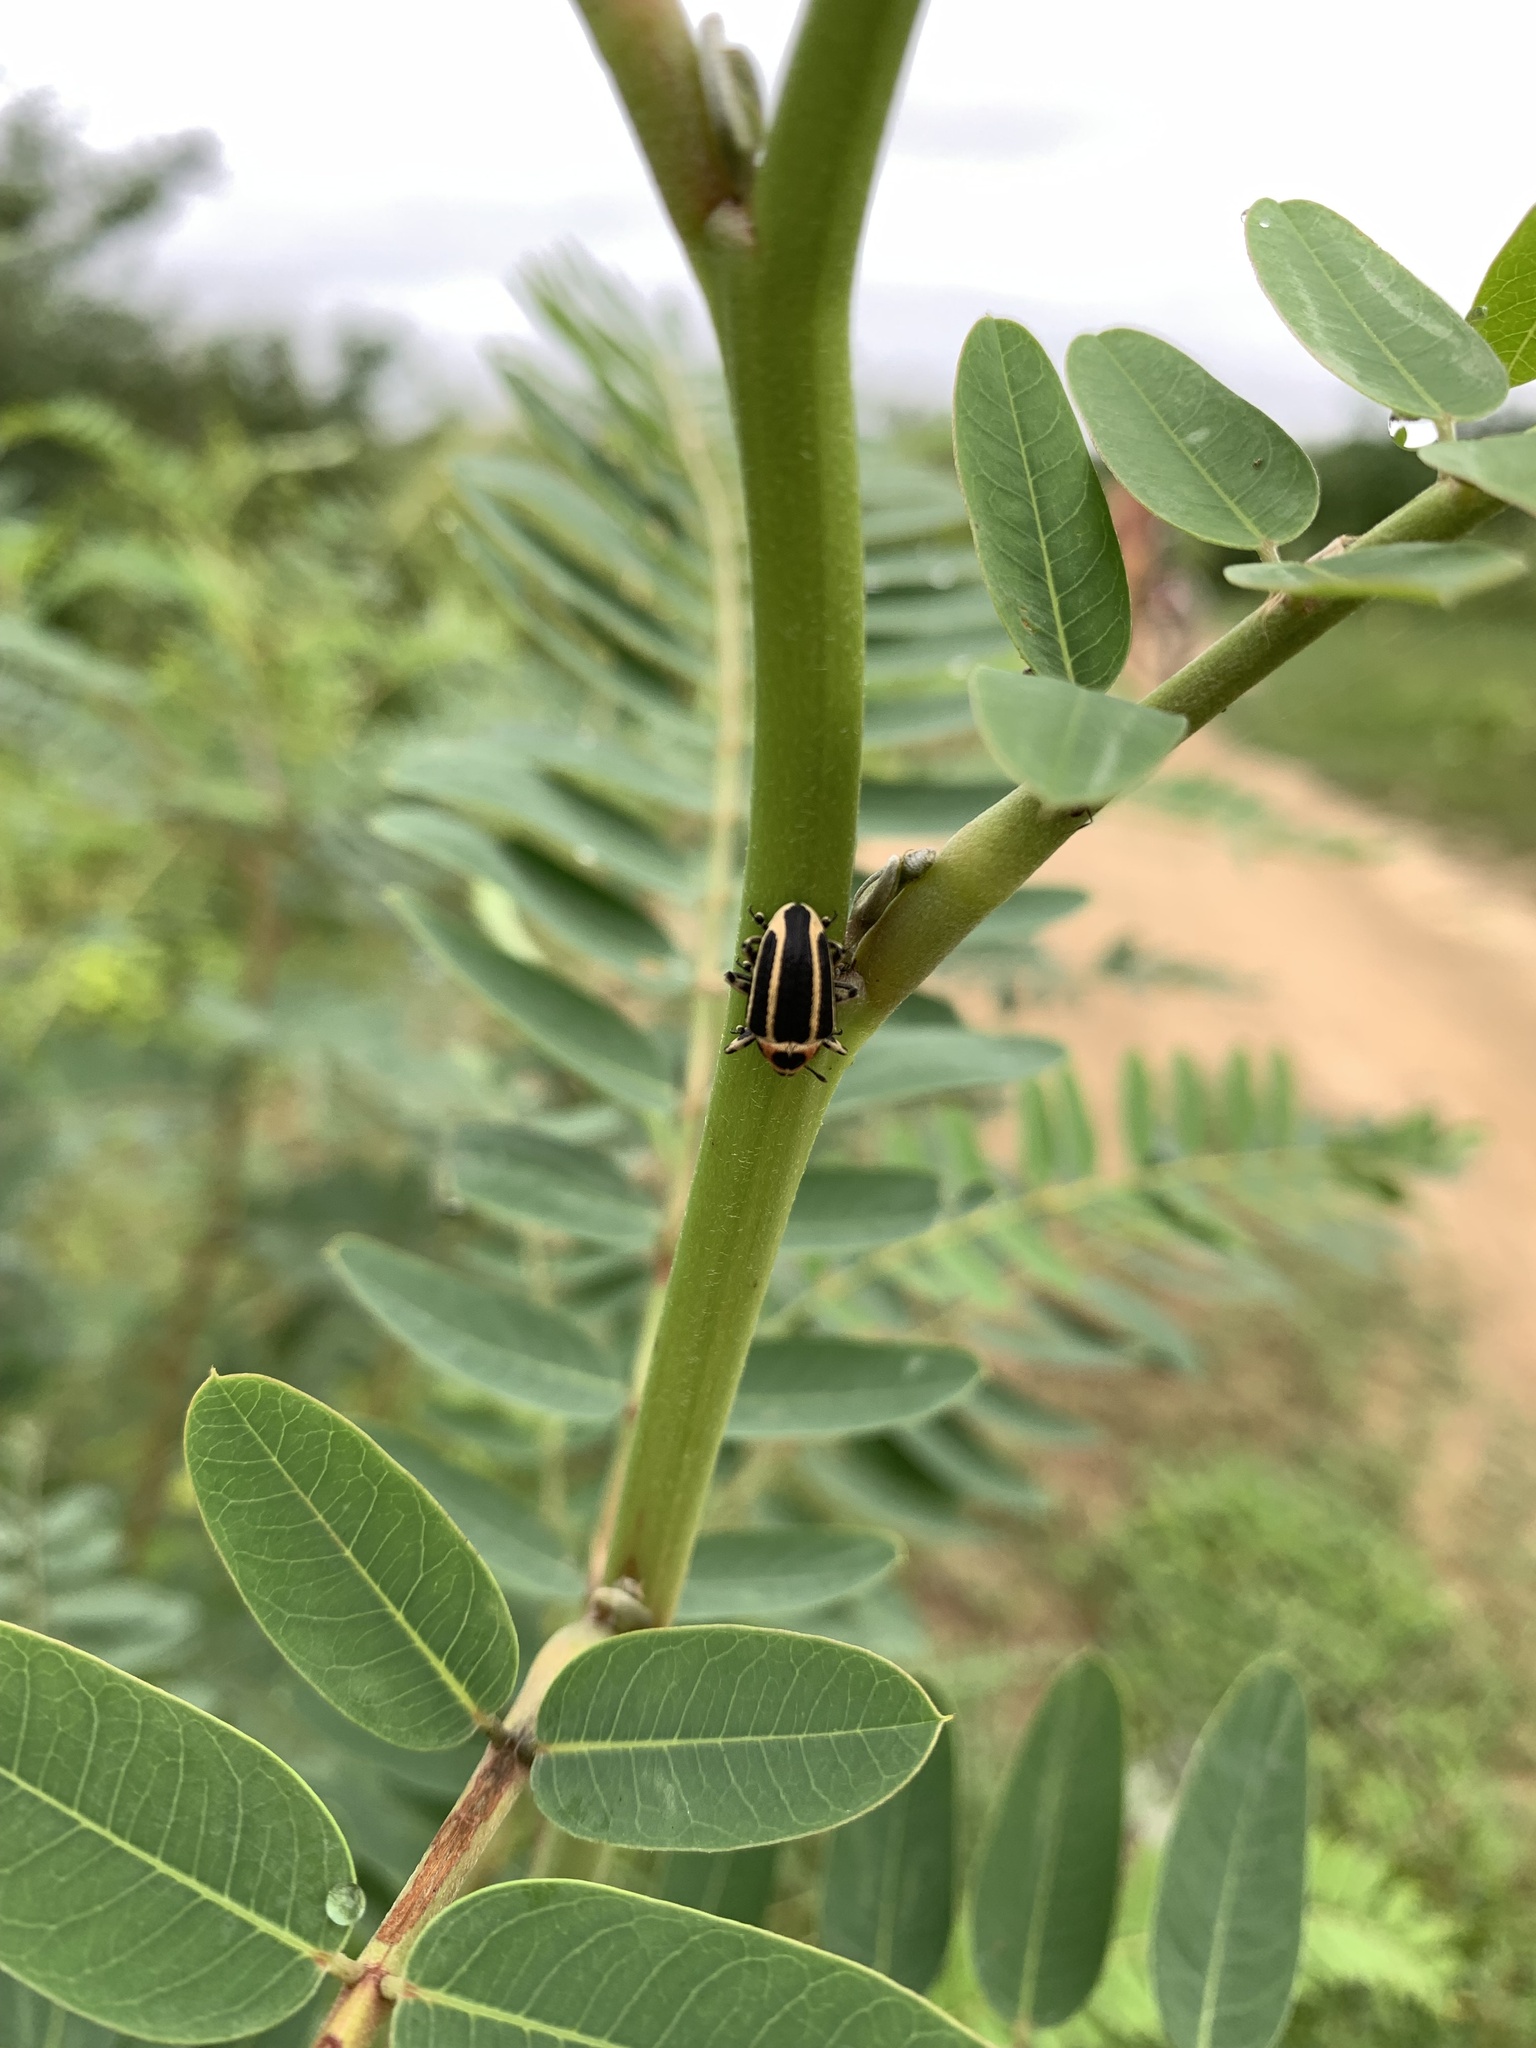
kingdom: Animalia
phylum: Arthropoda
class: Insecta
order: Coleoptera
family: Curculionidae
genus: Neodiplogrammus
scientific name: Neodiplogrammus
